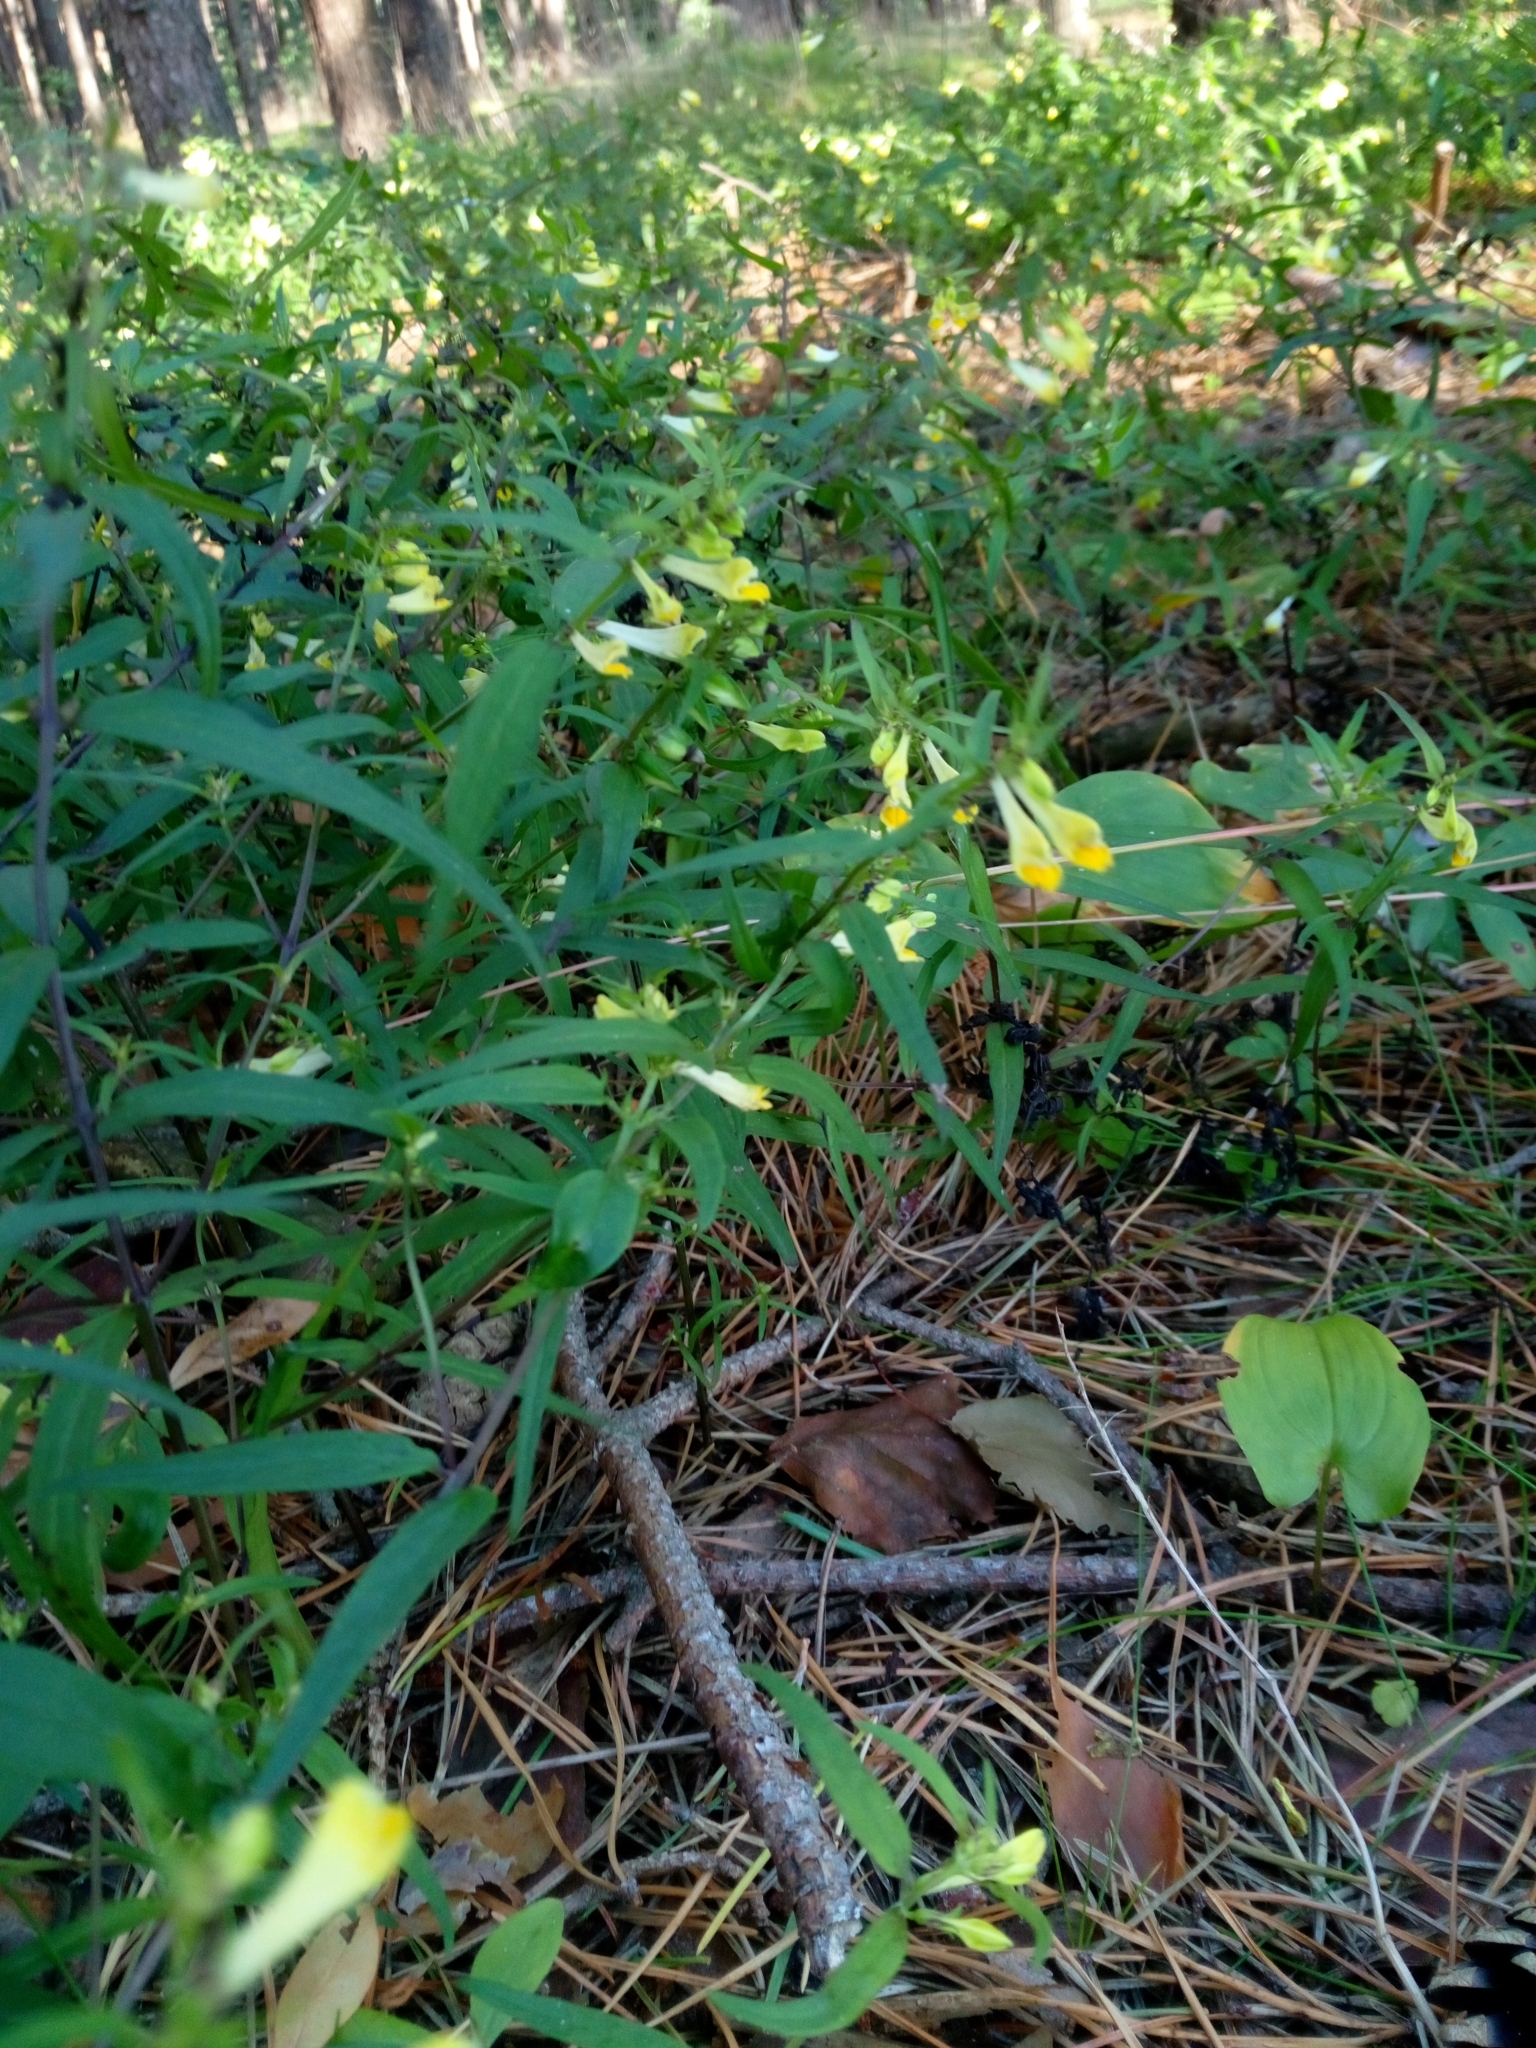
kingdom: Plantae
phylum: Tracheophyta
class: Magnoliopsida
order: Lamiales
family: Orobanchaceae
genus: Melampyrum
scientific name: Melampyrum pratense
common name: Common cow-wheat
